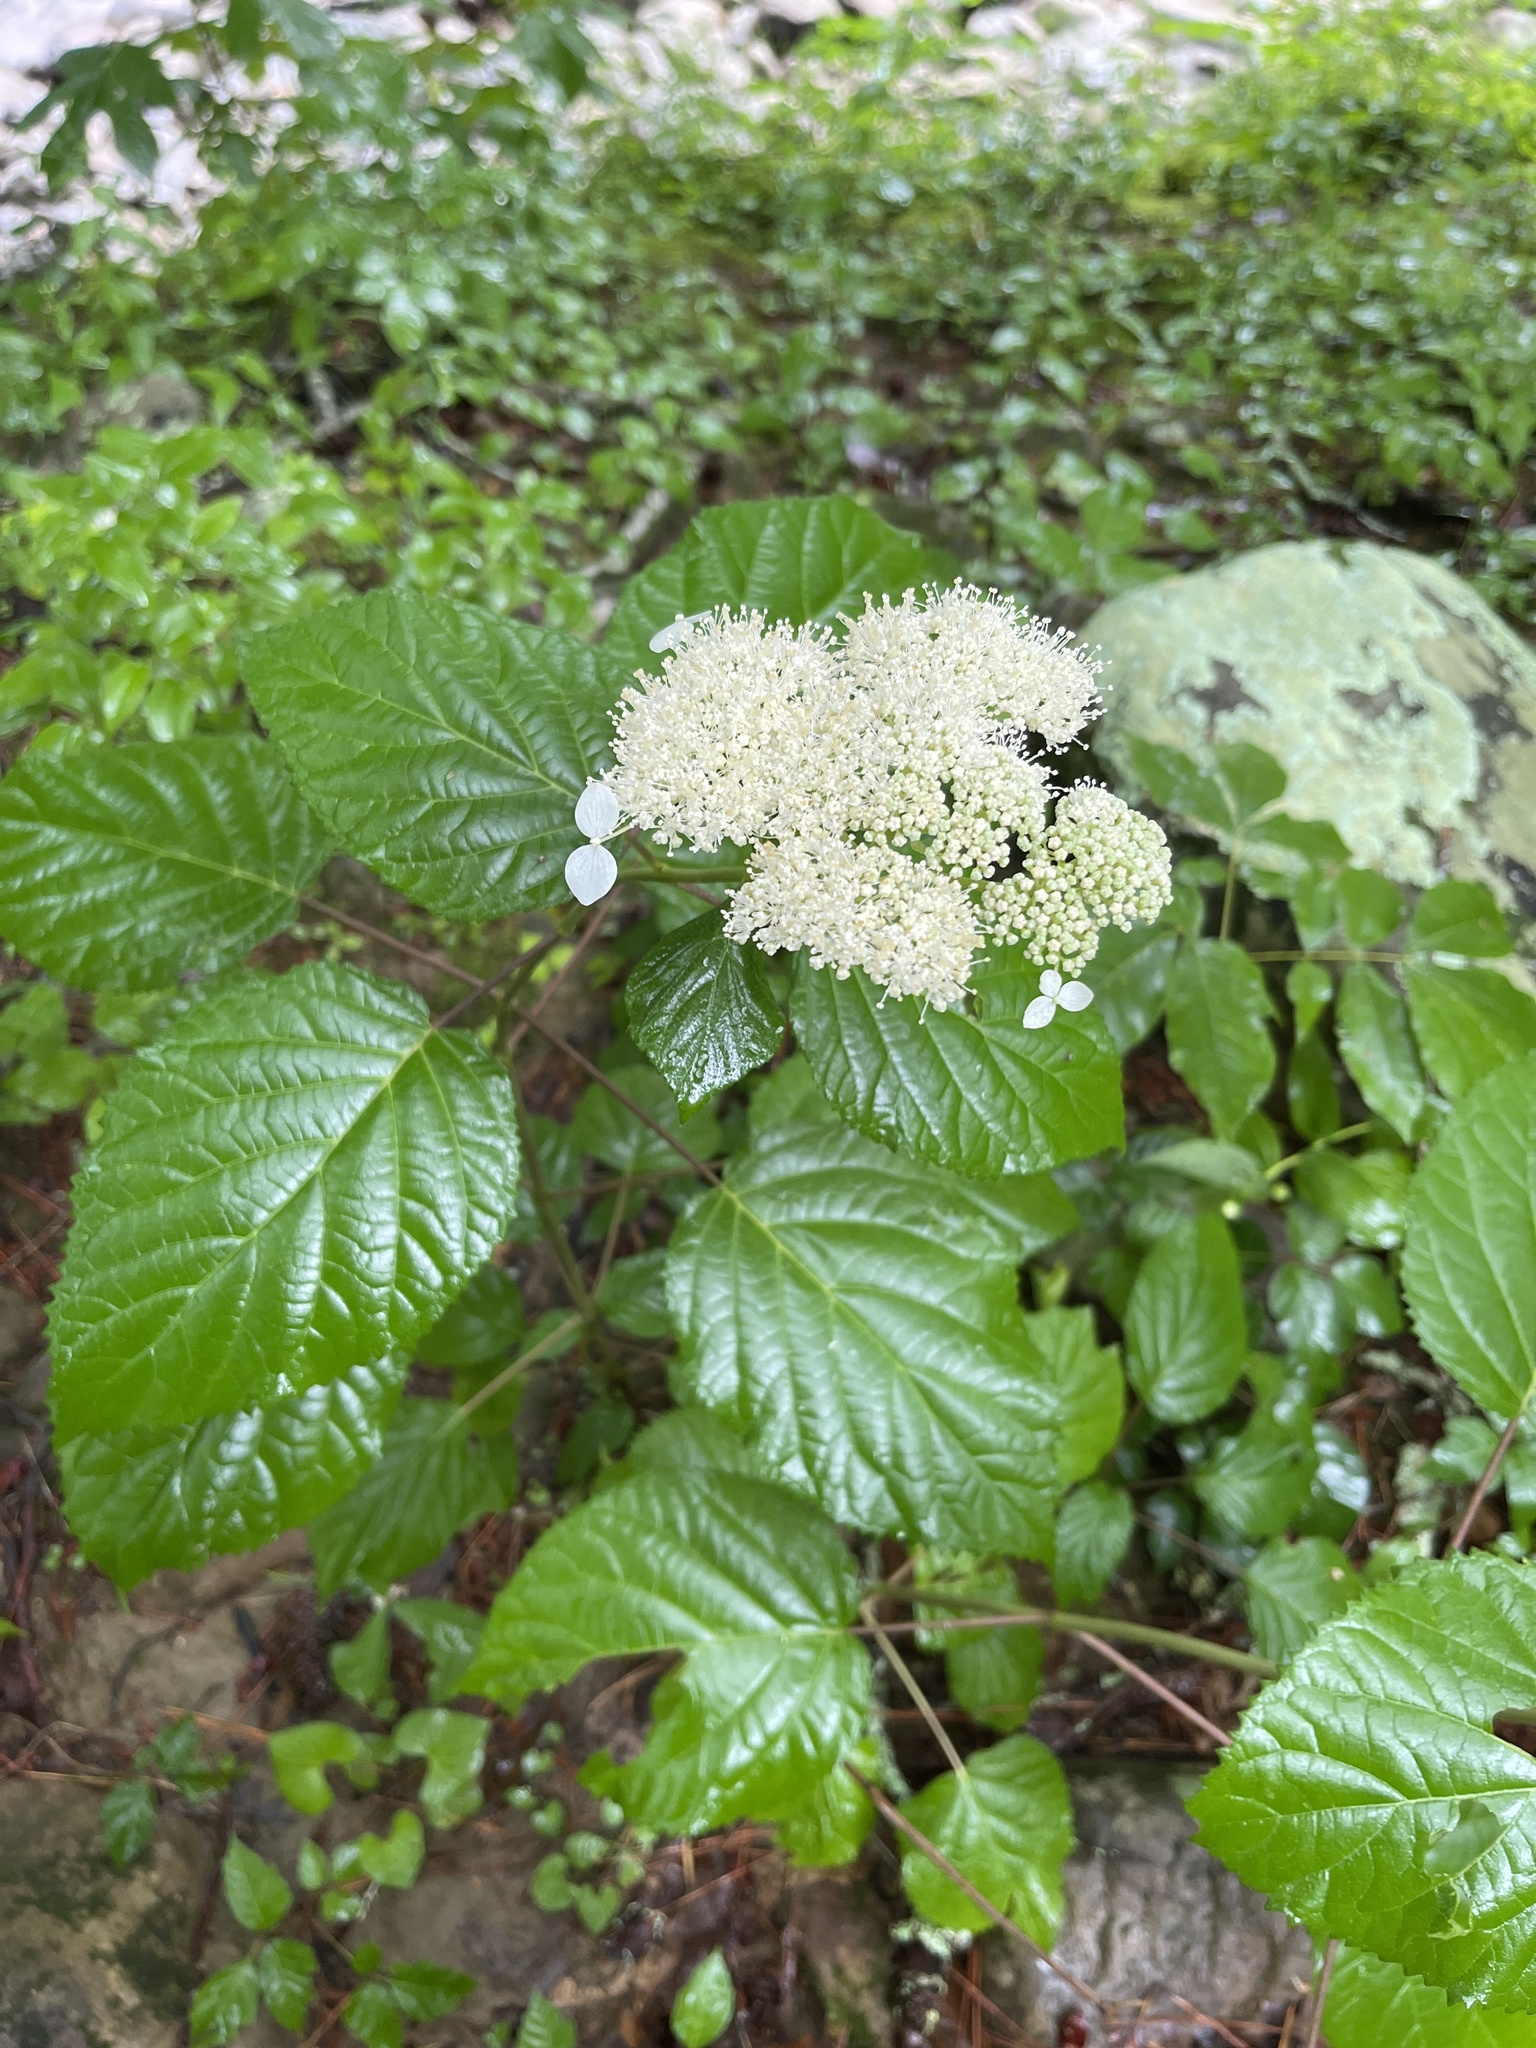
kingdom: Plantae
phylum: Tracheophyta
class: Magnoliopsida
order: Cornales
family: Hydrangeaceae
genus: Hydrangea
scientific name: Hydrangea arborescens
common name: Sevenbark
